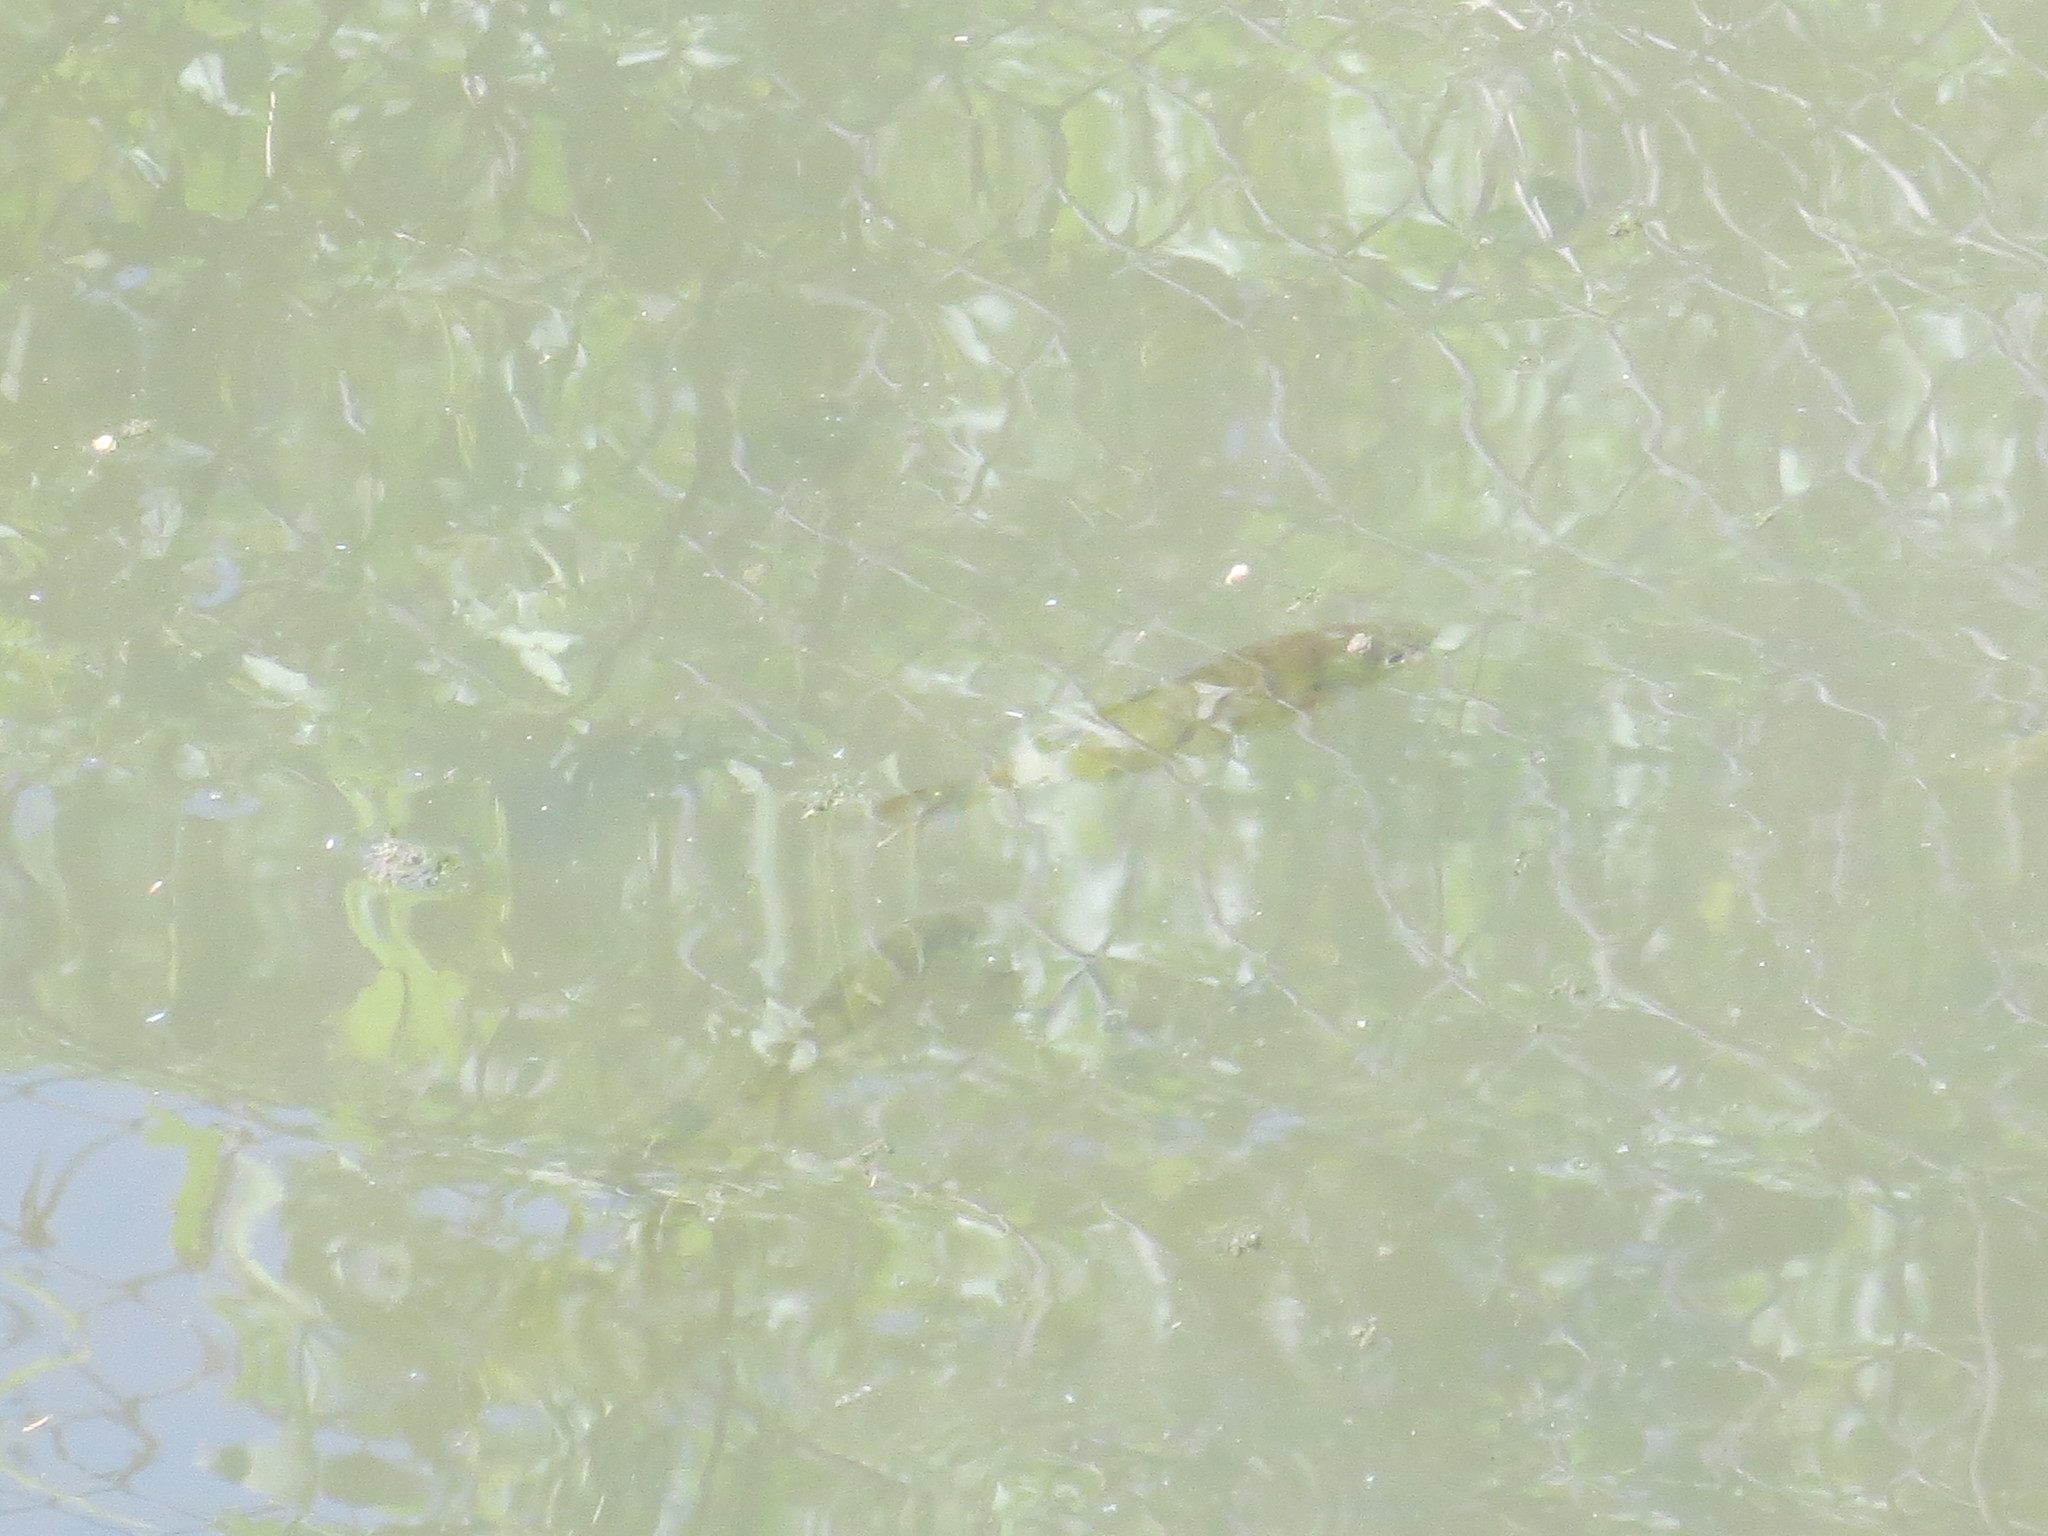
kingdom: Animalia
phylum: Chordata
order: Perciformes
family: Centrarchidae
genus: Lepomis
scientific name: Lepomis macrochirus
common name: Bluegill
